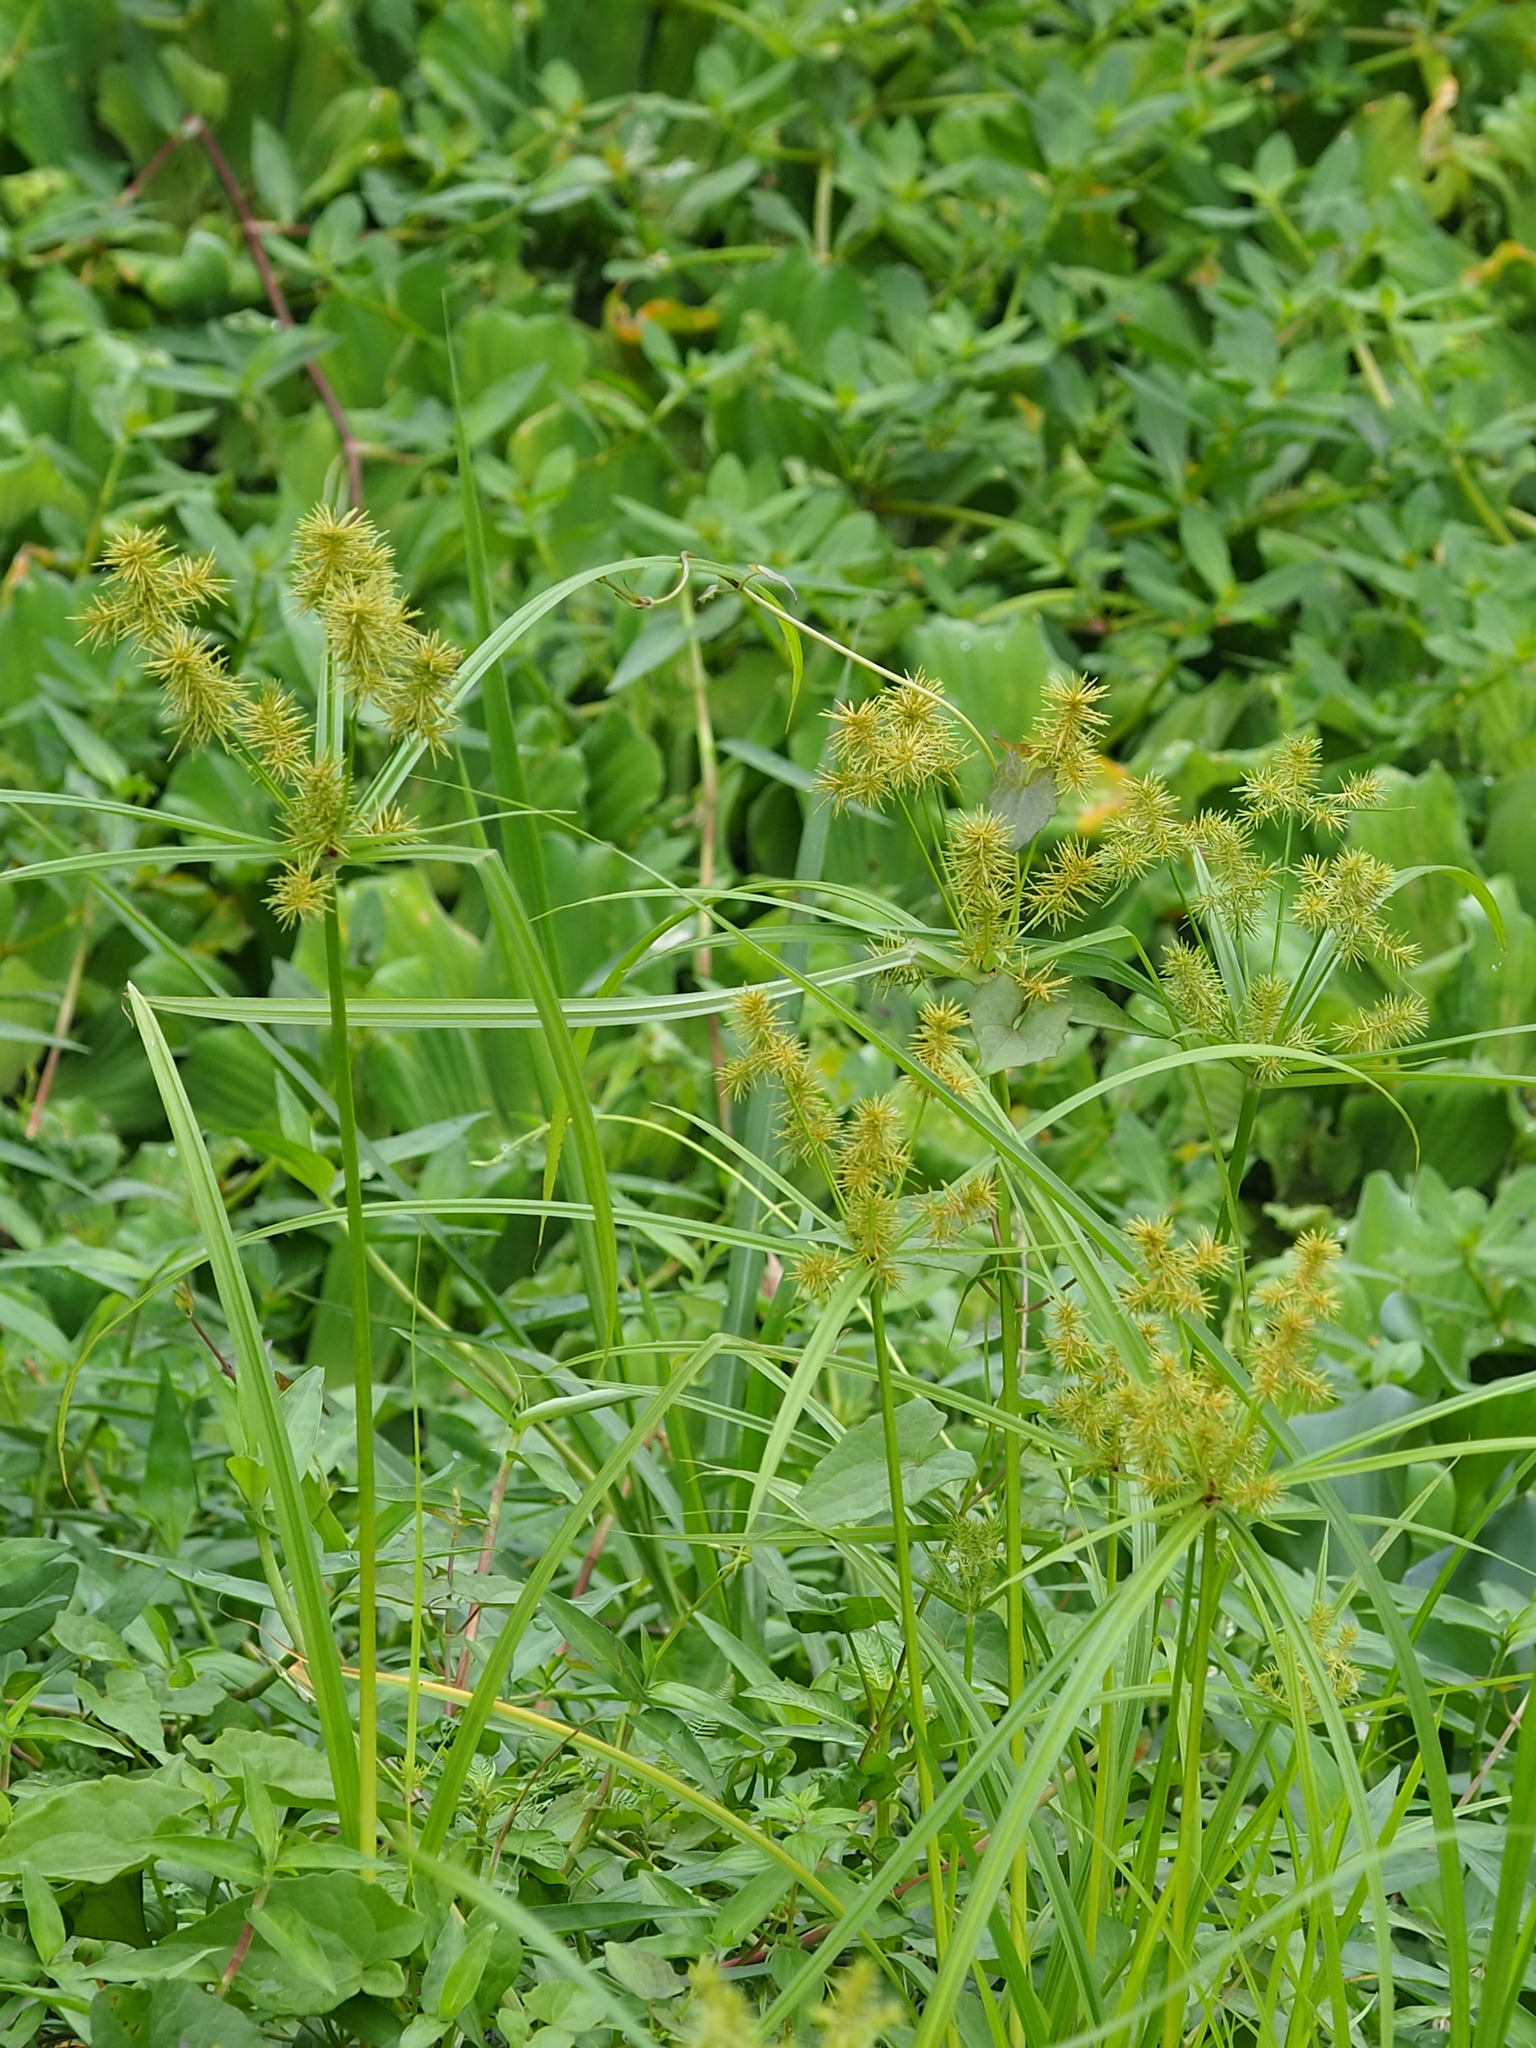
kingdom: Plantae
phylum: Tracheophyta
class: Liliopsida
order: Poales
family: Cyperaceae
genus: Cyperus
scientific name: Cyperus odoratus
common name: Fragrant flatsedge
